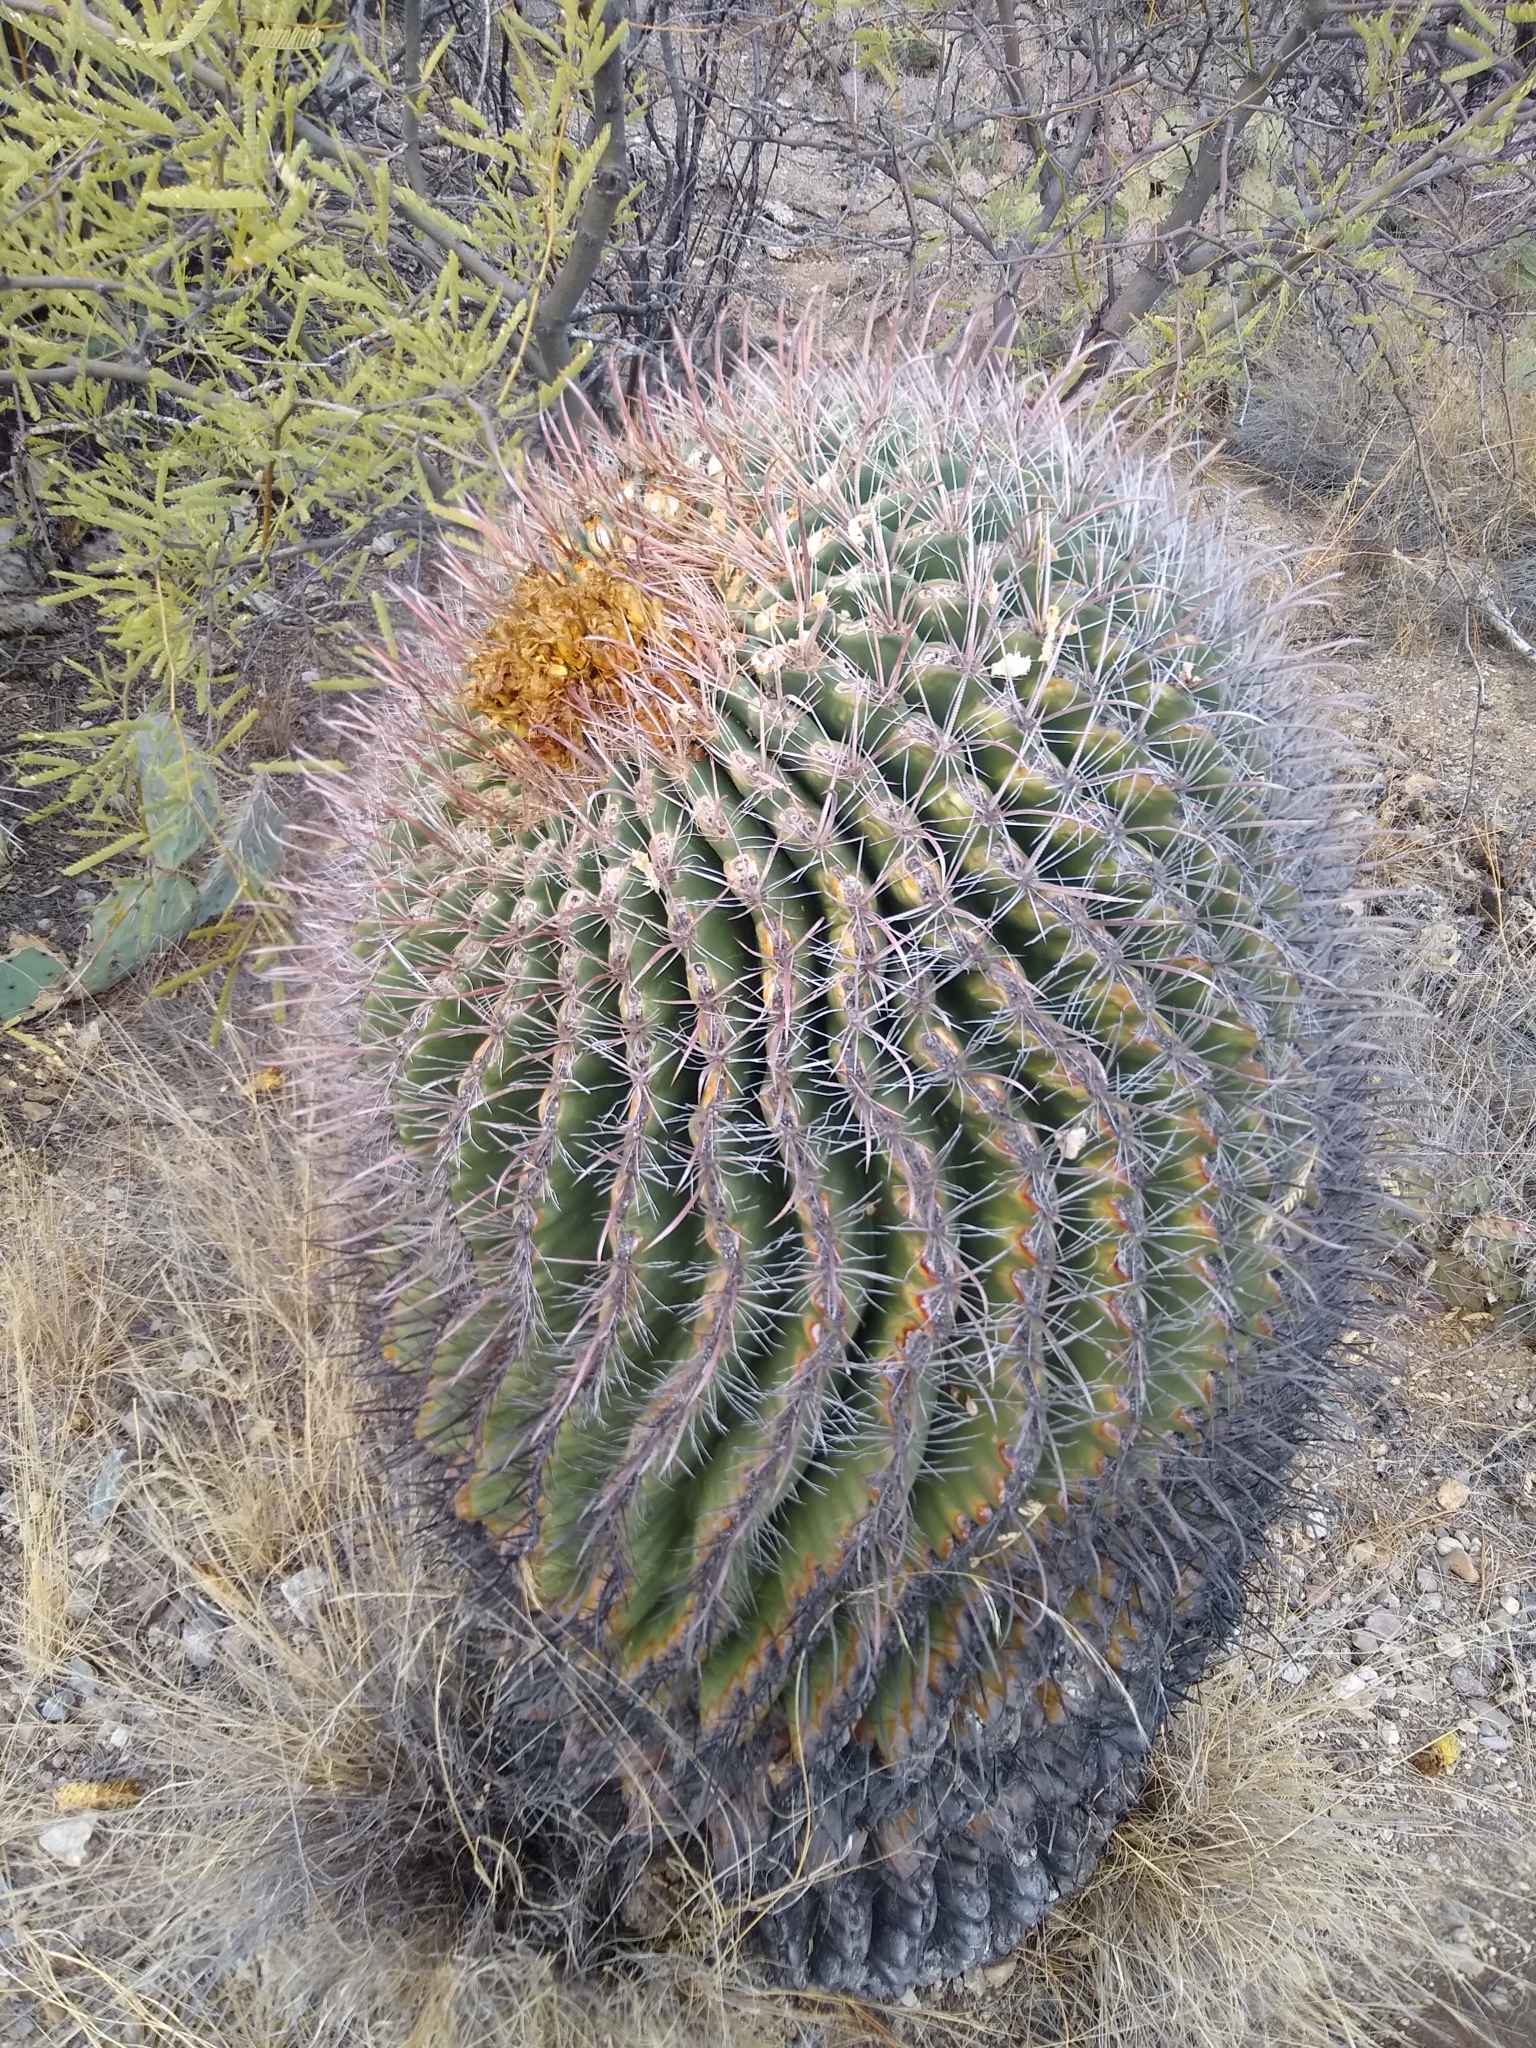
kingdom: Plantae
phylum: Tracheophyta
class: Magnoliopsida
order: Caryophyllales
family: Cactaceae
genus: Ferocactus
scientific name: Ferocactus wislizeni
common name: Candy barrel cactus
